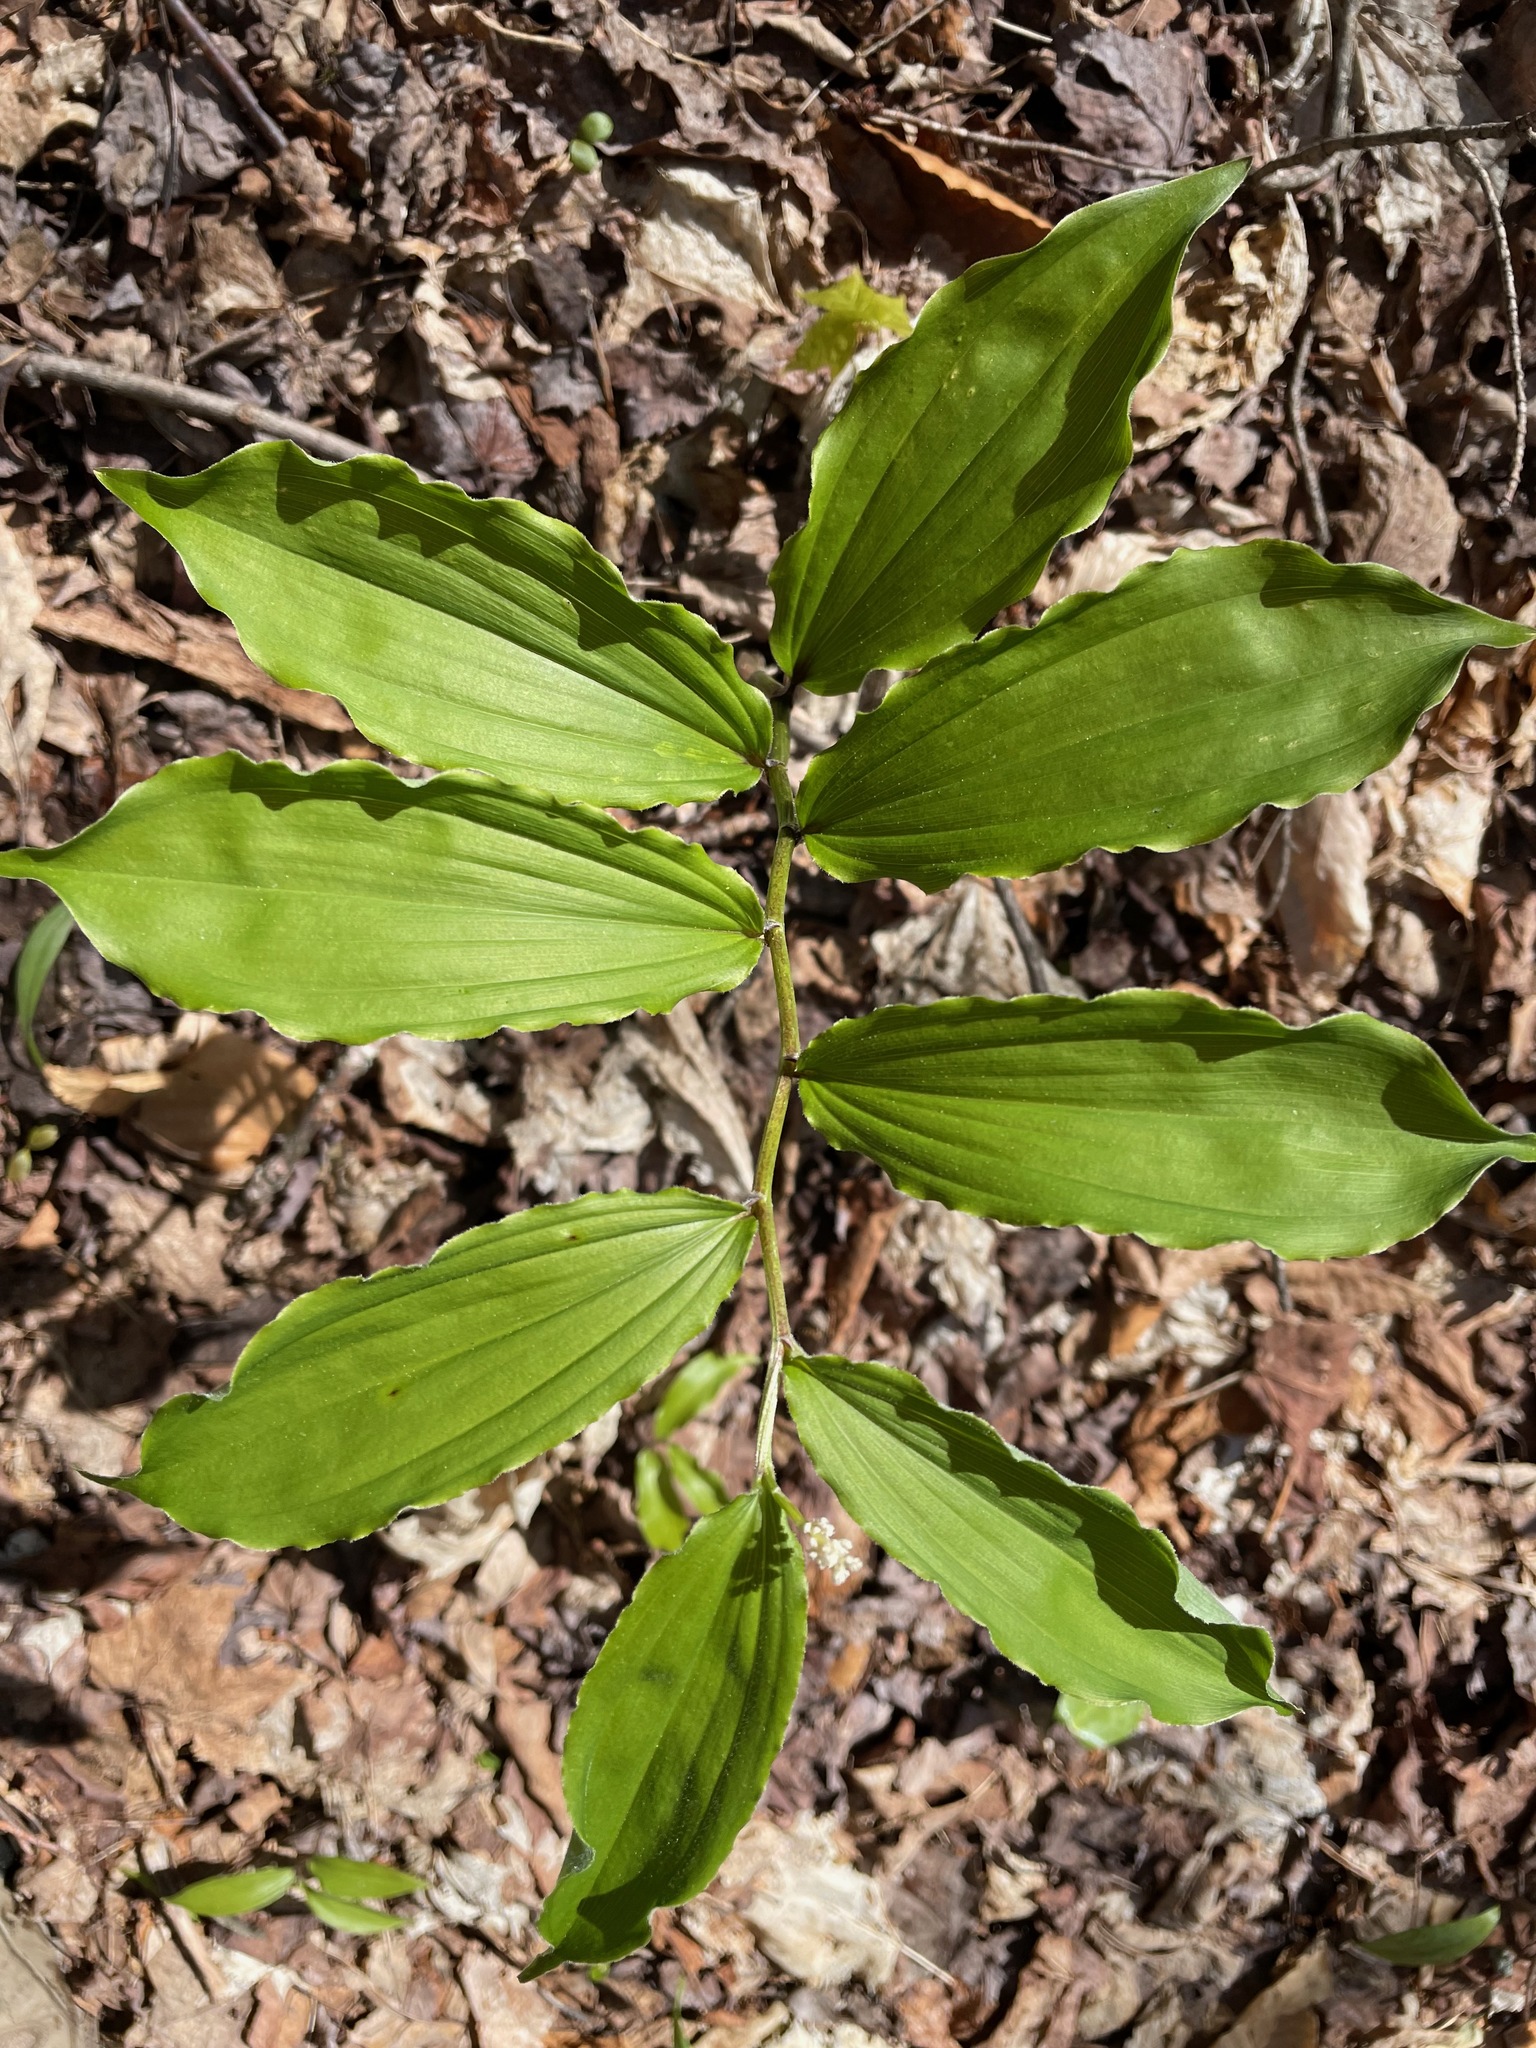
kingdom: Plantae
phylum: Tracheophyta
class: Liliopsida
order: Asparagales
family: Asparagaceae
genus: Maianthemum
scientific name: Maianthemum racemosum
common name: False spikenard
